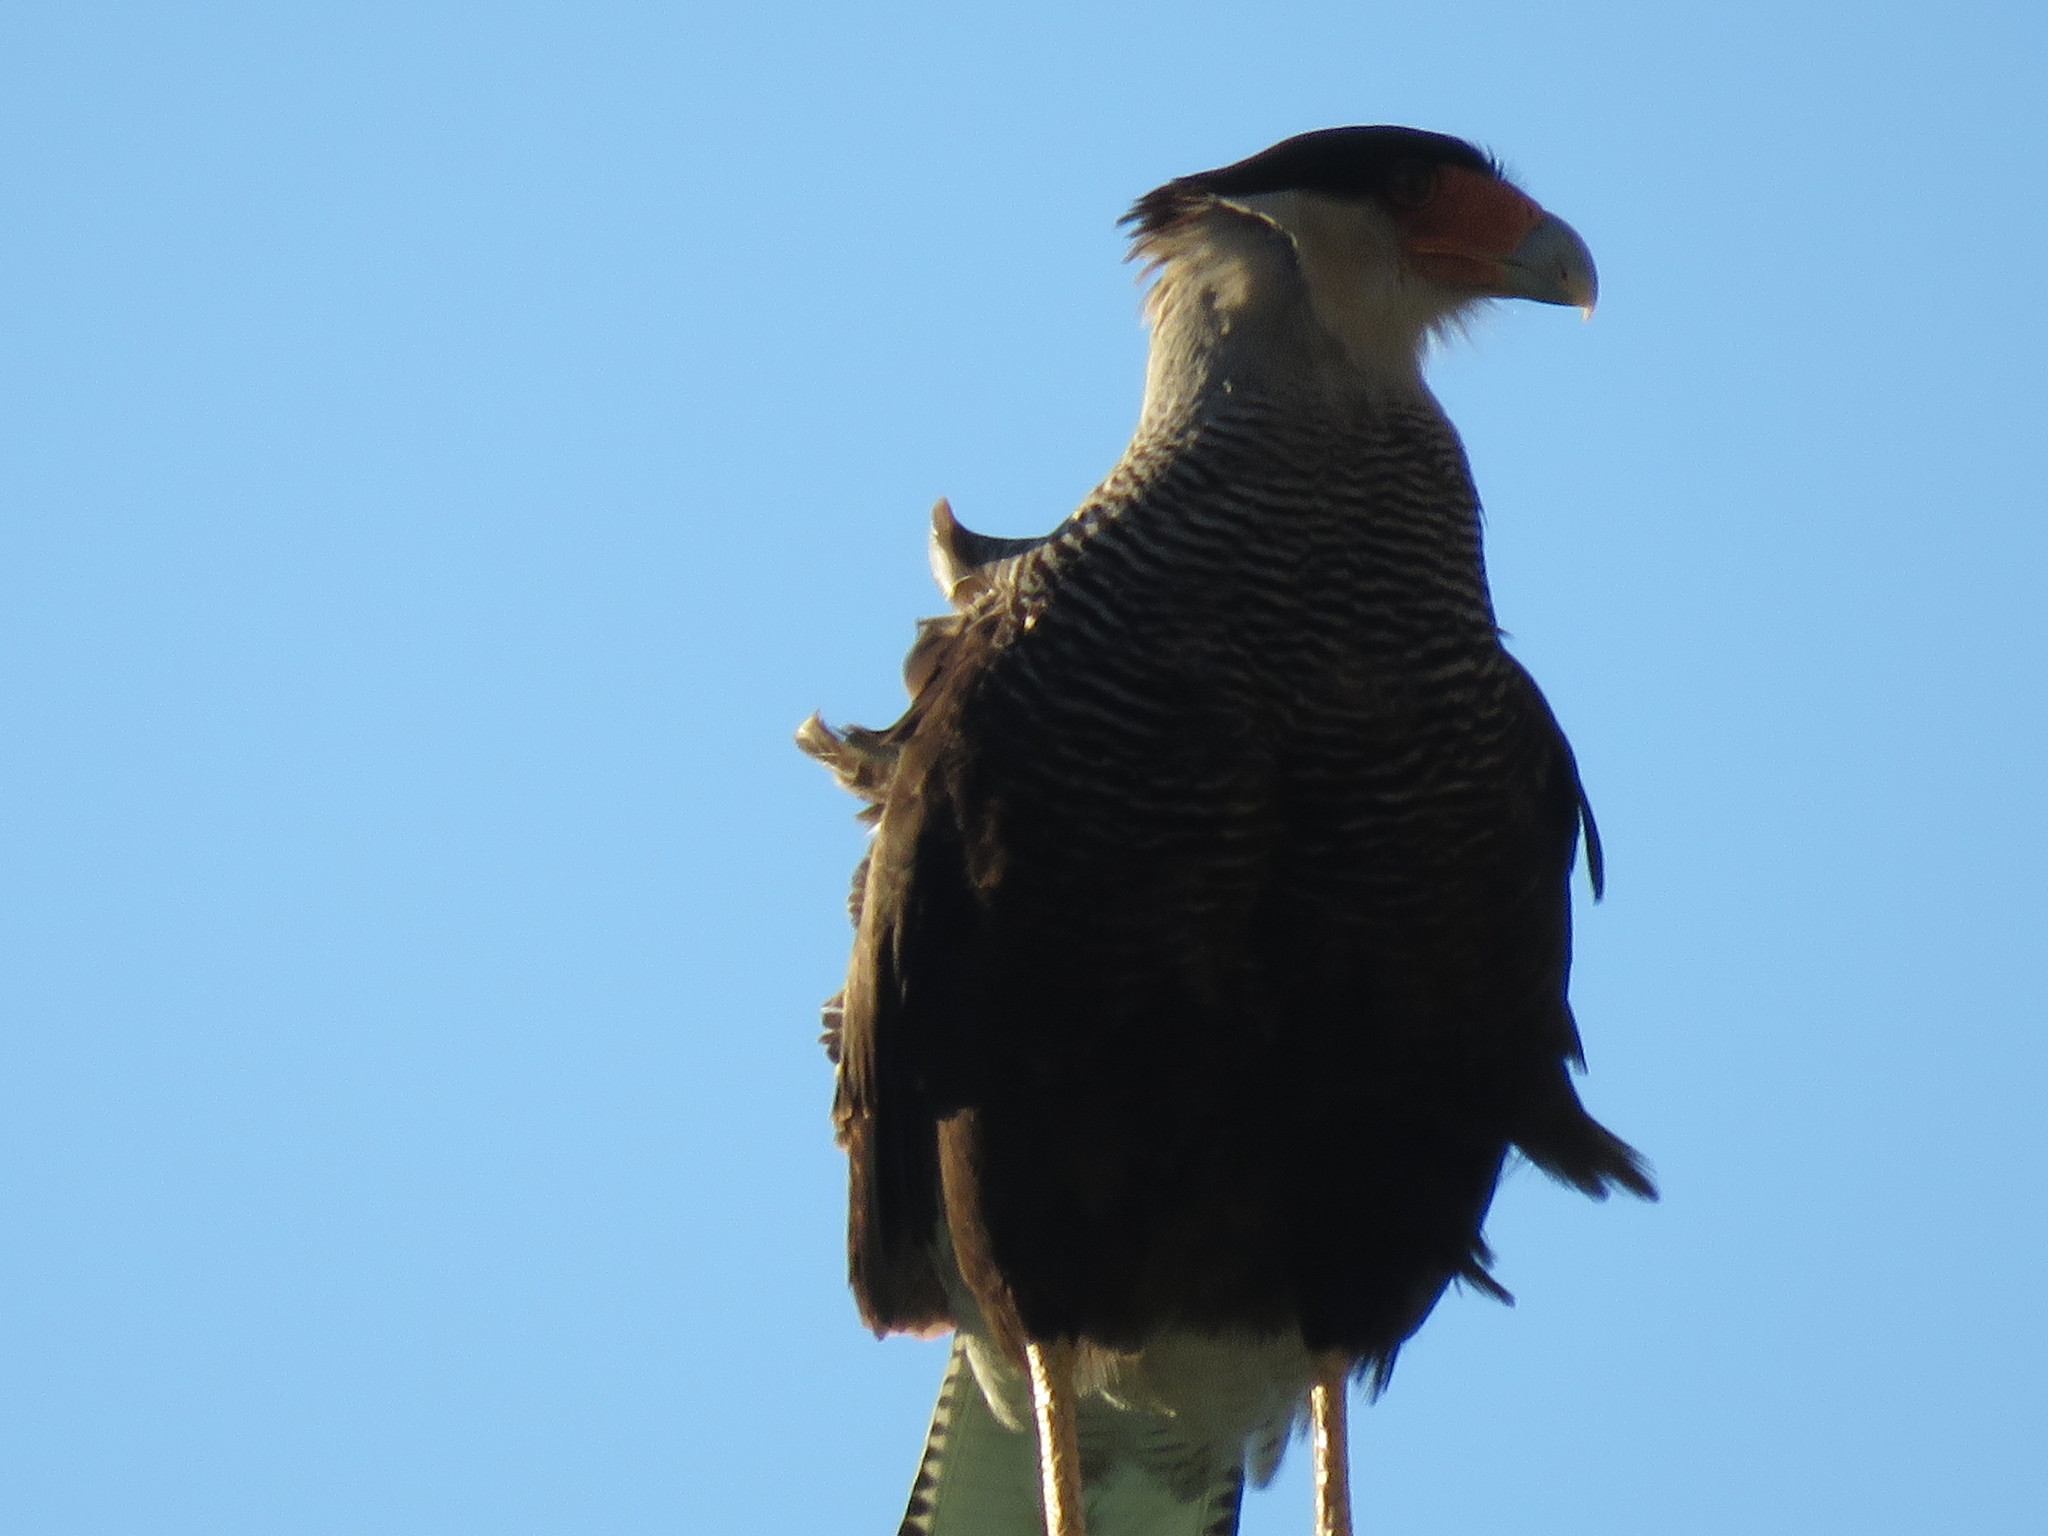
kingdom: Animalia
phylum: Chordata
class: Aves
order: Falconiformes
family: Falconidae
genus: Caracara
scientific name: Caracara plancus
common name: Southern caracara
